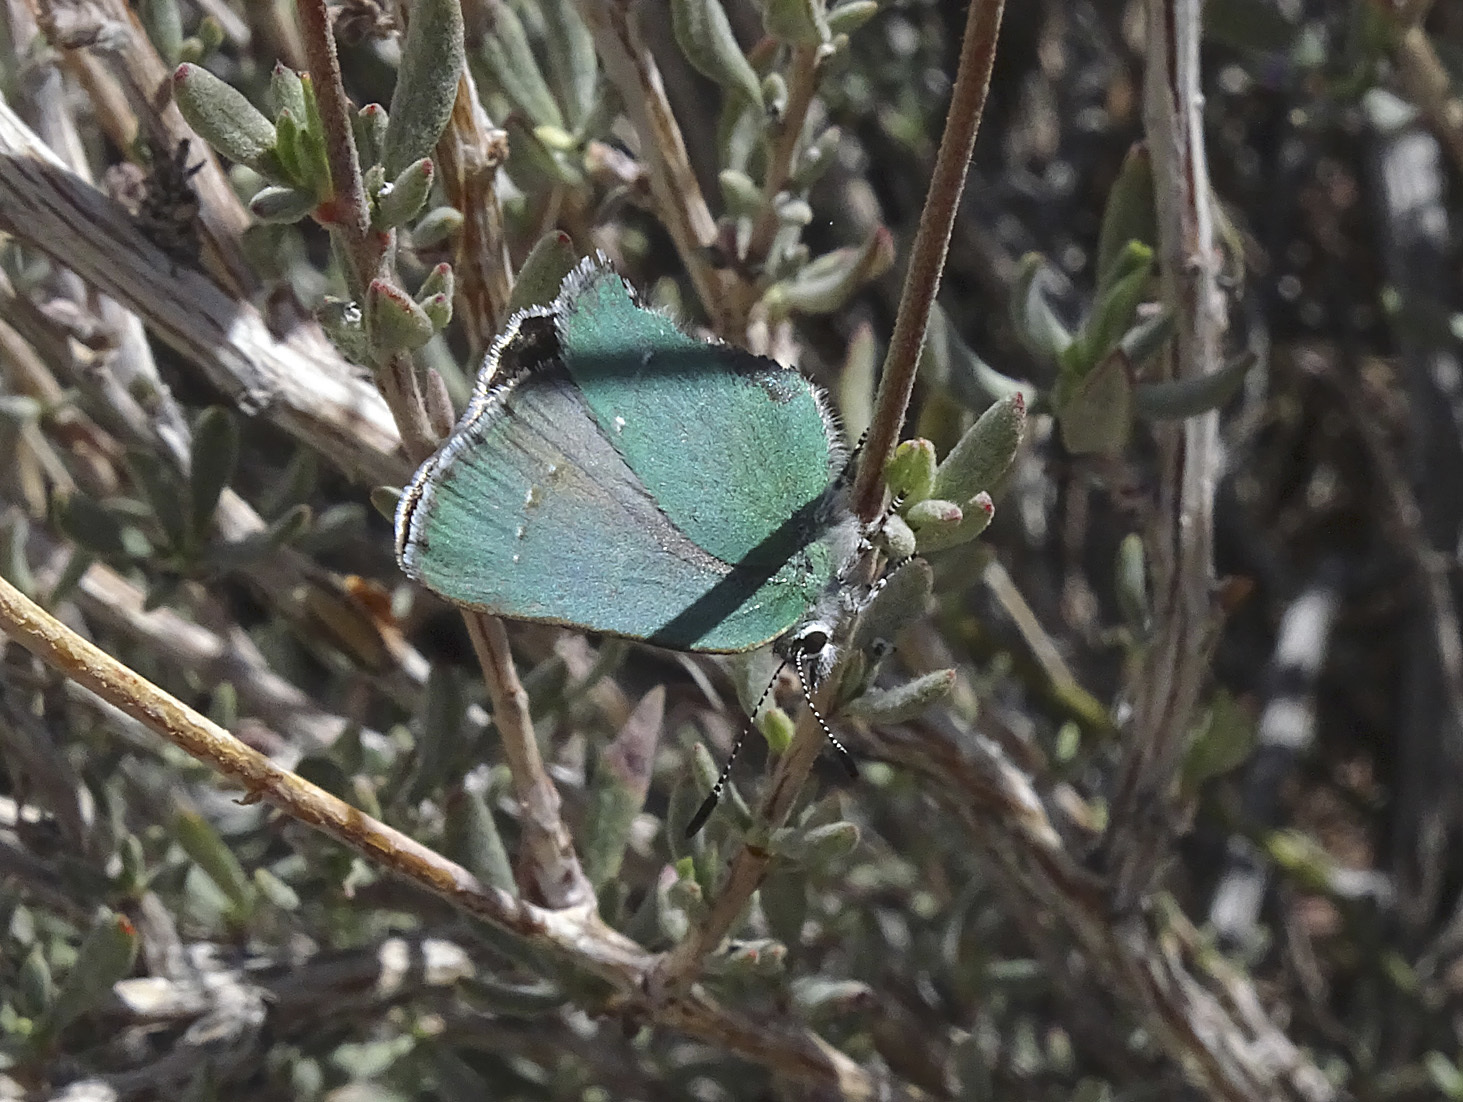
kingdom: Animalia
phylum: Arthropoda
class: Insecta
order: Lepidoptera
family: Lycaenidae
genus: Callophrys
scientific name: Callophrys dumetorum
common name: Bramble hairstreak
